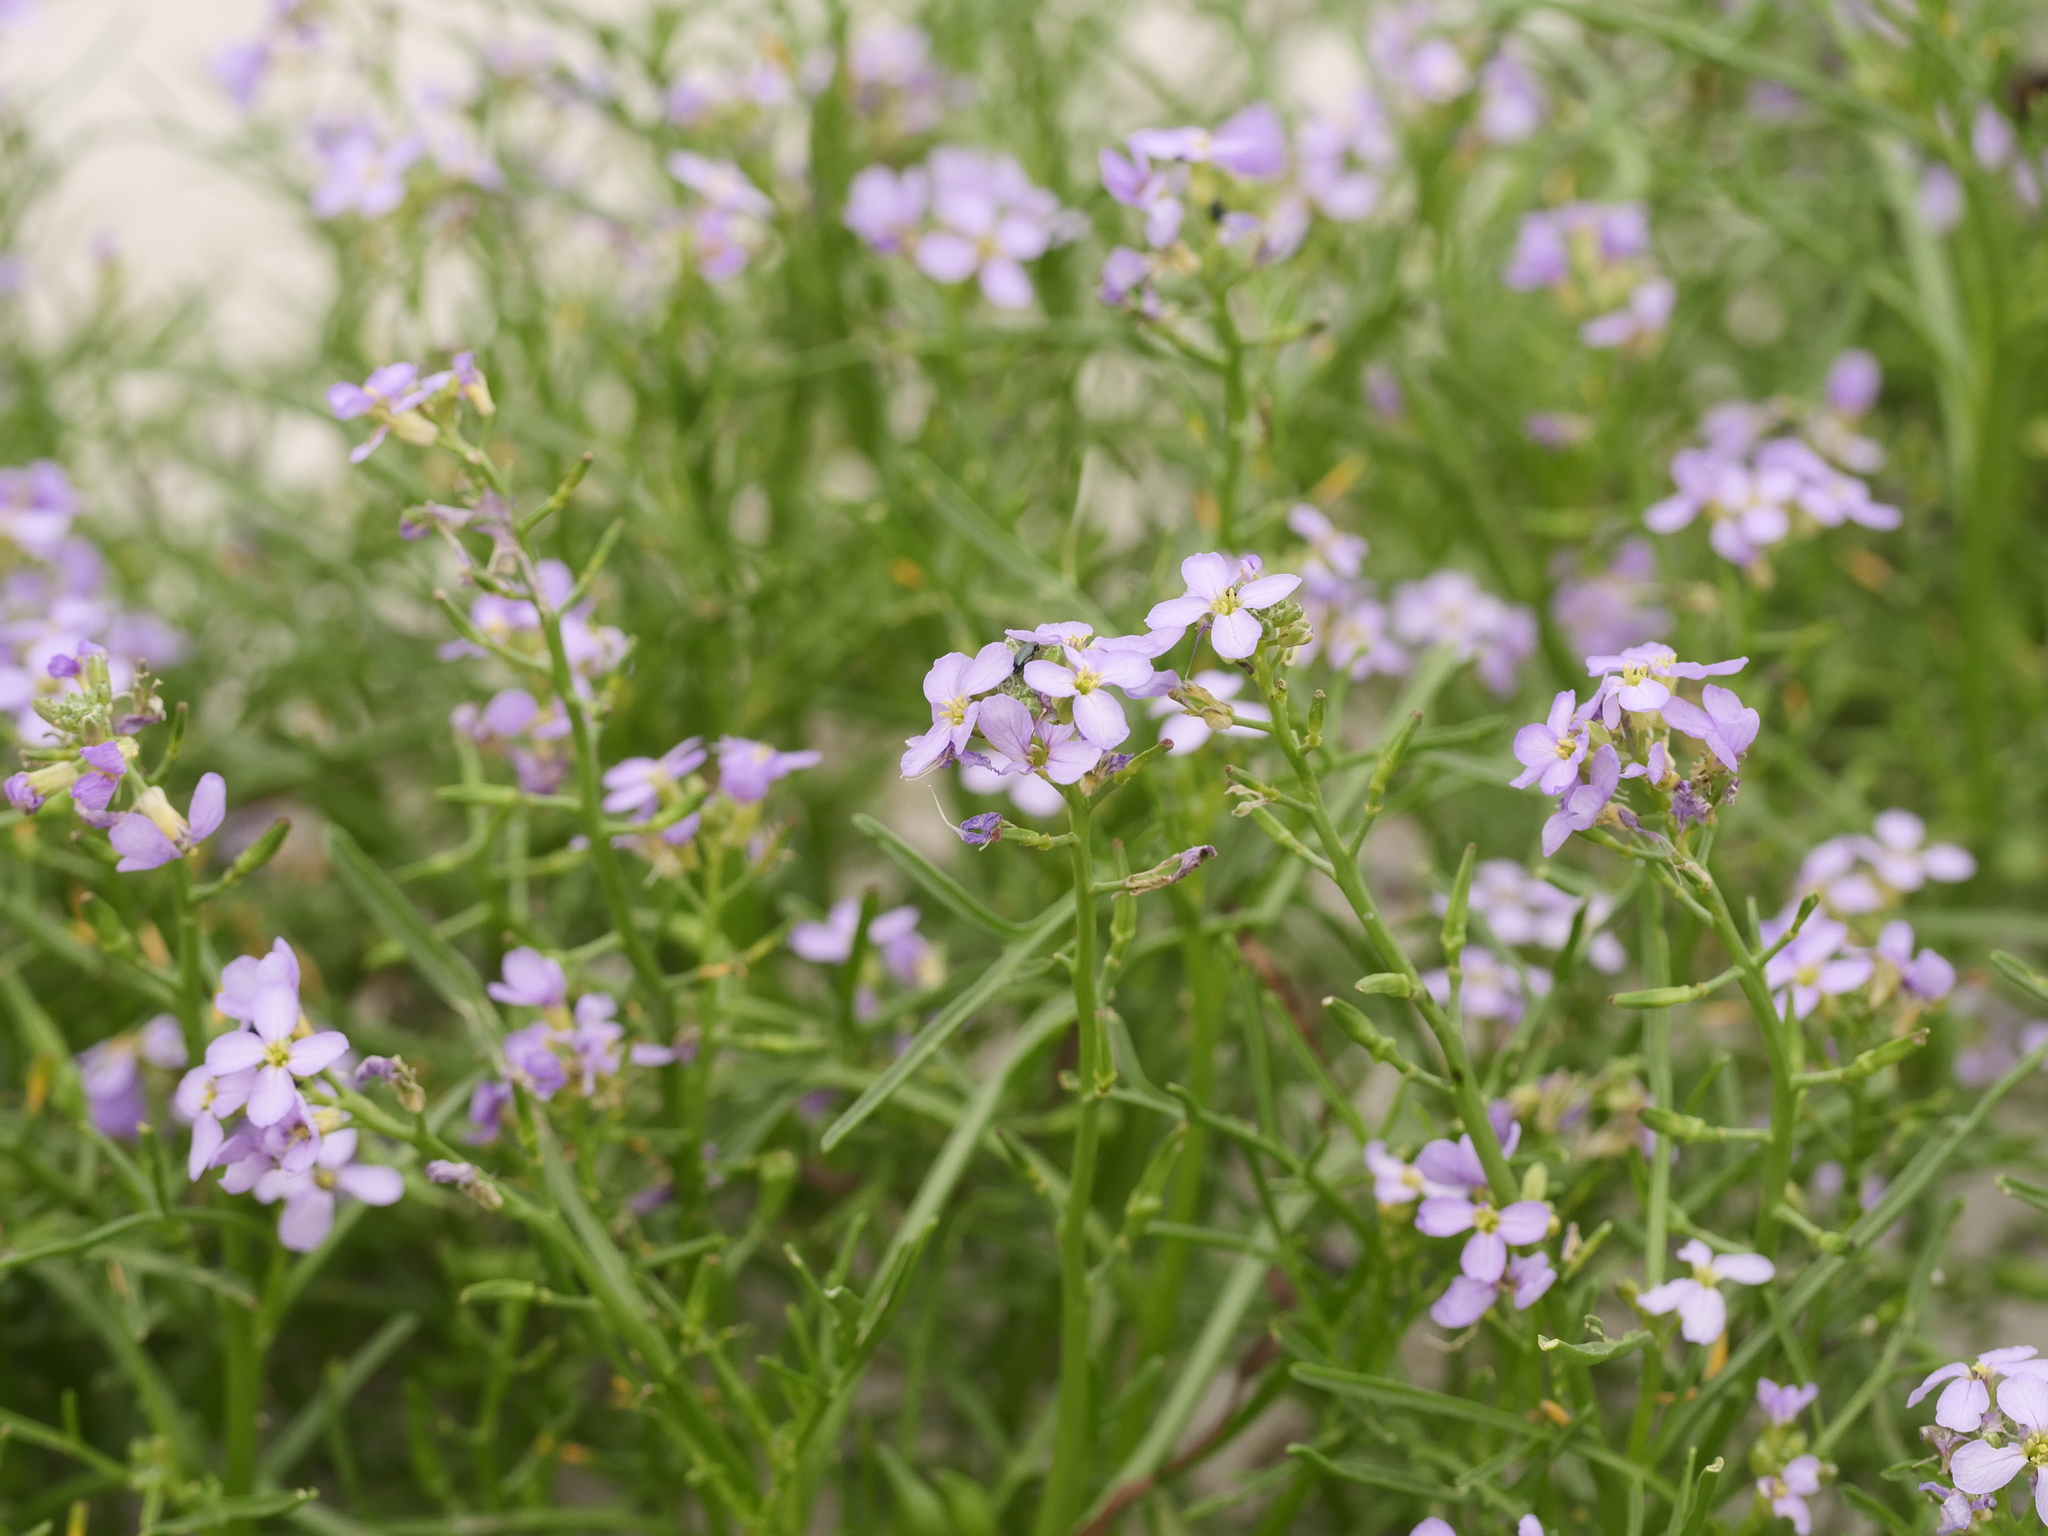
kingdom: Plantae
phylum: Tracheophyta
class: Magnoliopsida
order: Brassicales
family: Brassicaceae
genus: Cakile
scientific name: Cakile maritima
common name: Sea rocket
